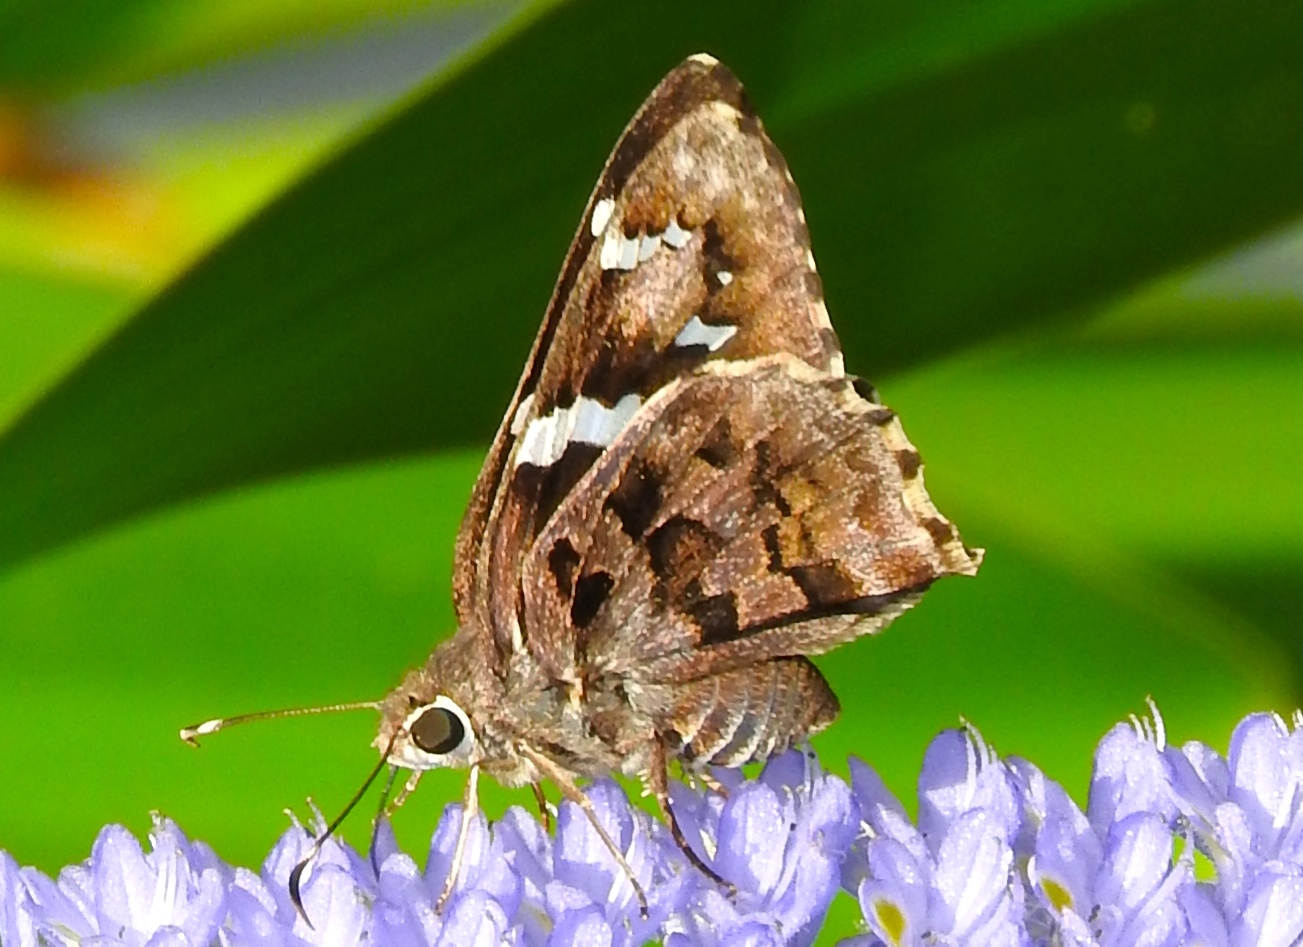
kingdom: Animalia
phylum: Arthropoda
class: Insecta
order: Lepidoptera
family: Hesperiidae
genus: Codatractus
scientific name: Codatractus
